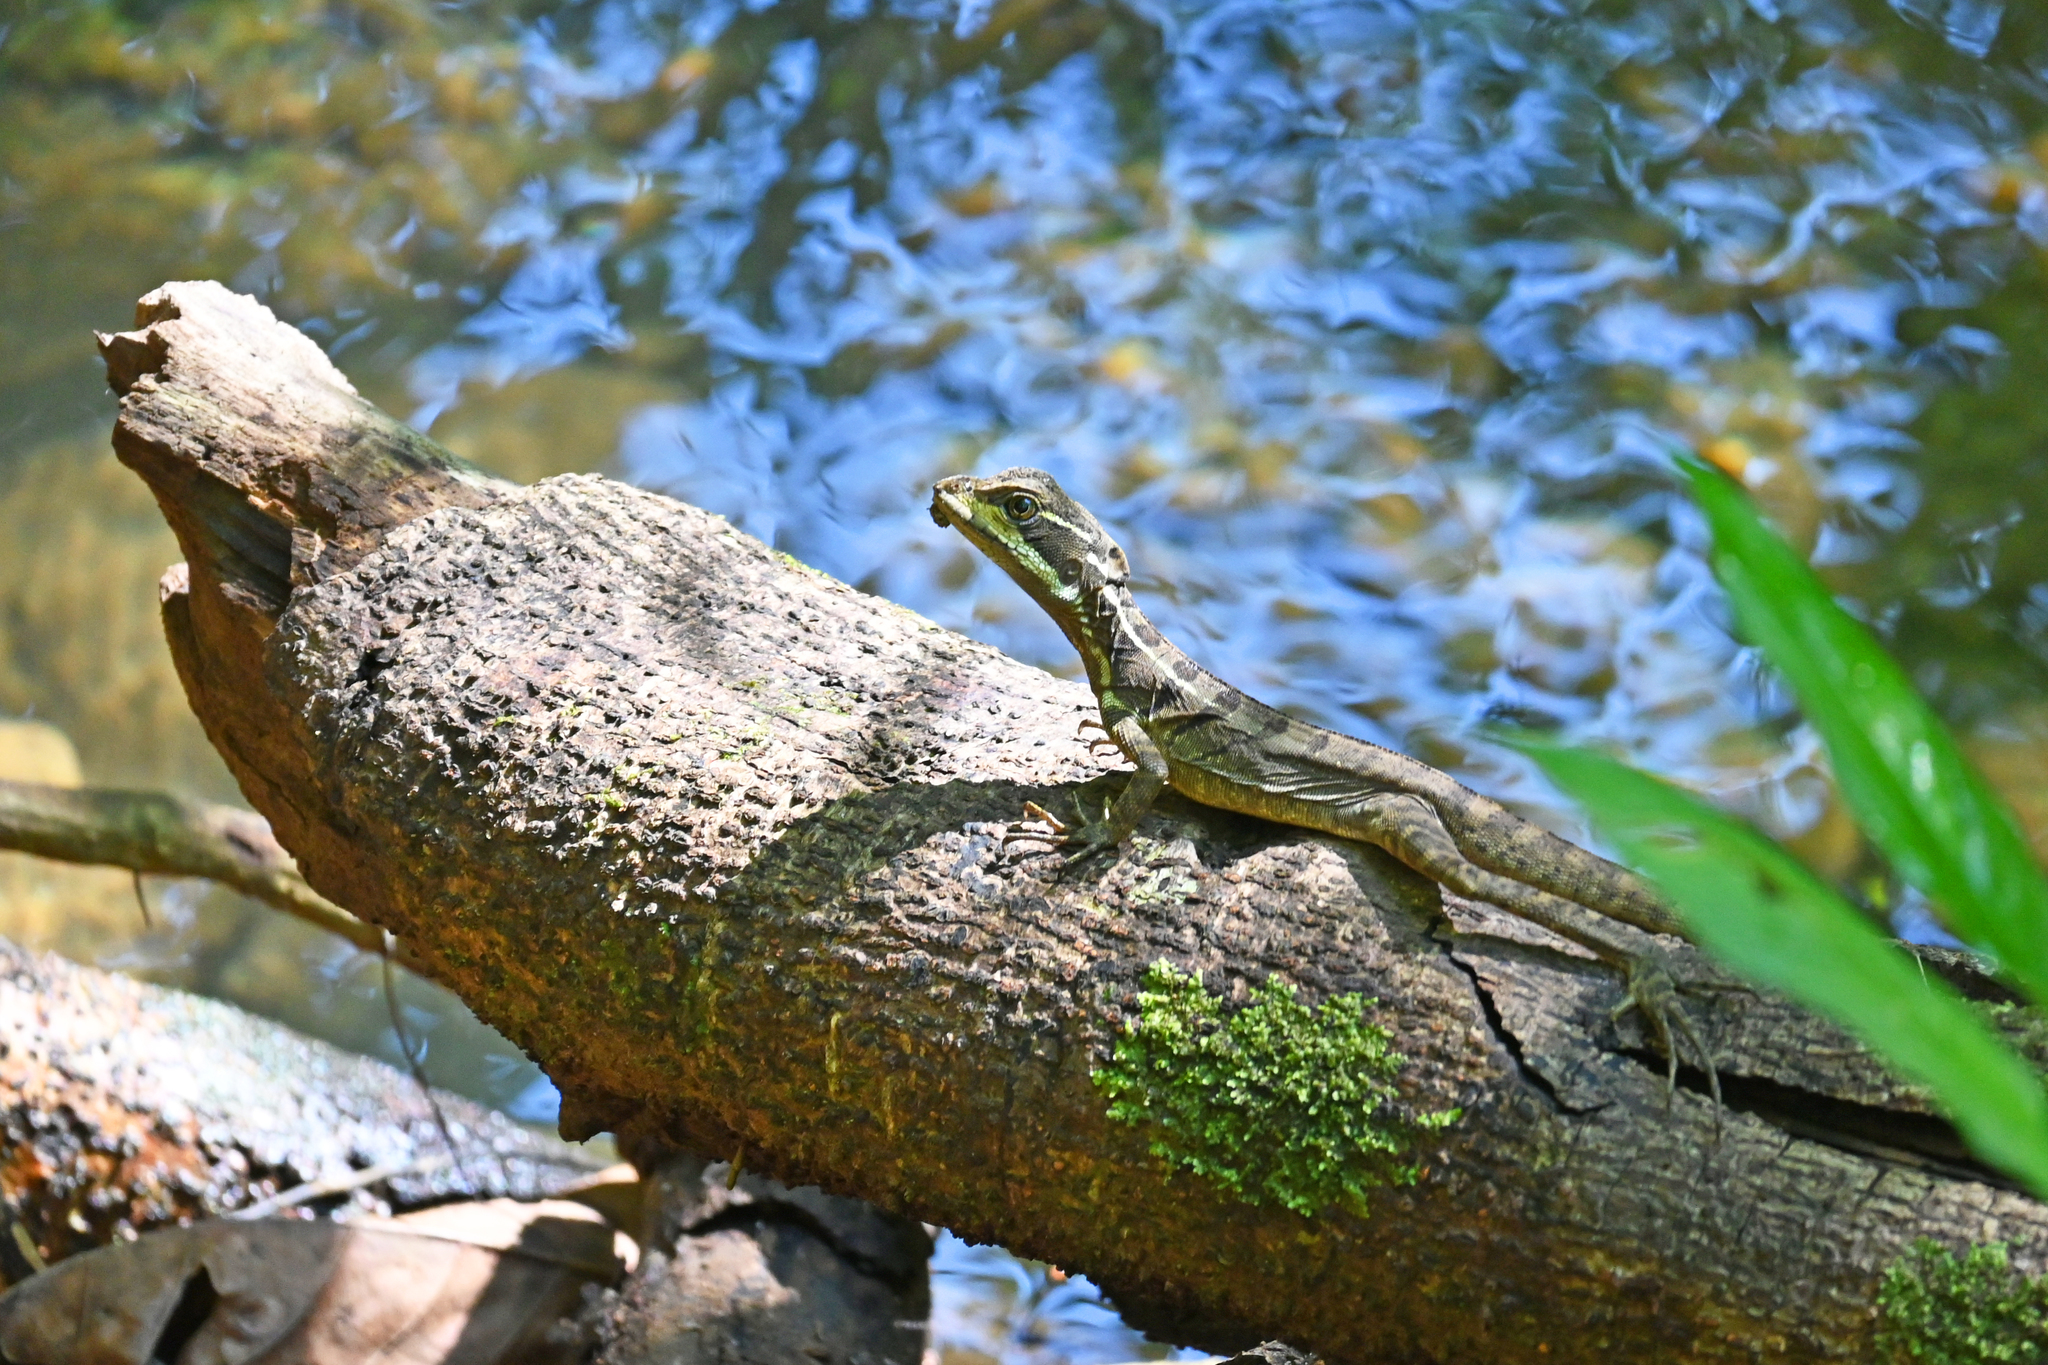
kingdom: Animalia
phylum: Chordata
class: Squamata
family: Corytophanidae
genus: Basiliscus
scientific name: Basiliscus basiliscus
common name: Common basilisk
